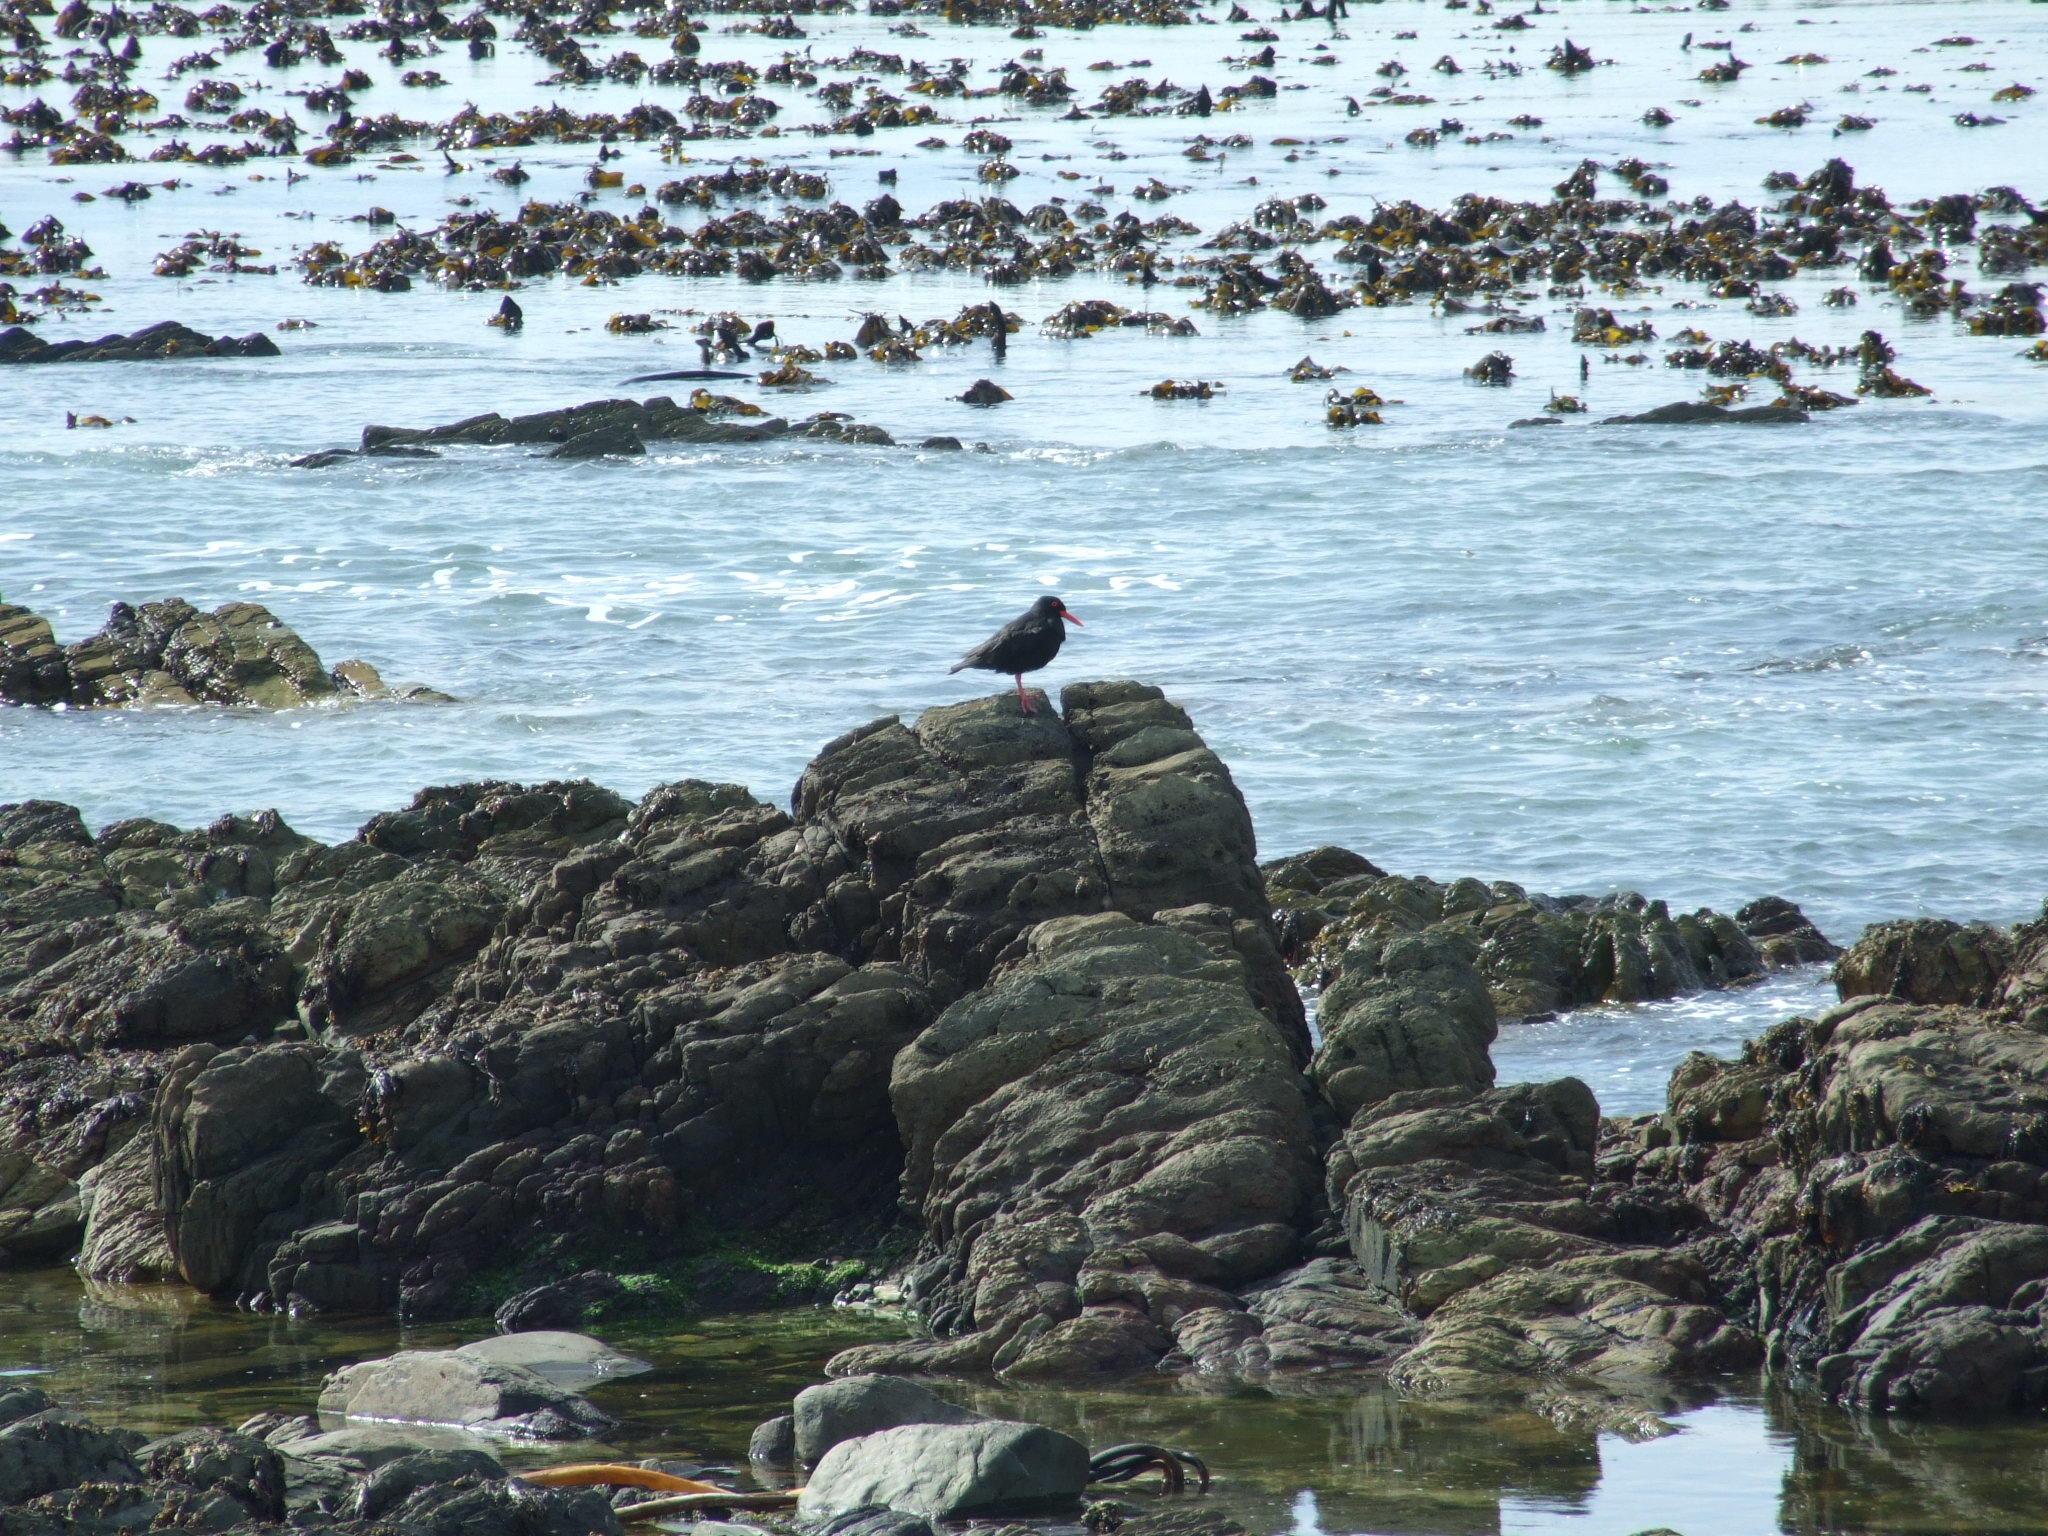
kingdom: Animalia
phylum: Chordata
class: Aves
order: Charadriiformes
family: Haematopodidae
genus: Haematopus
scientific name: Haematopus moquini
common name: African oystercatcher
